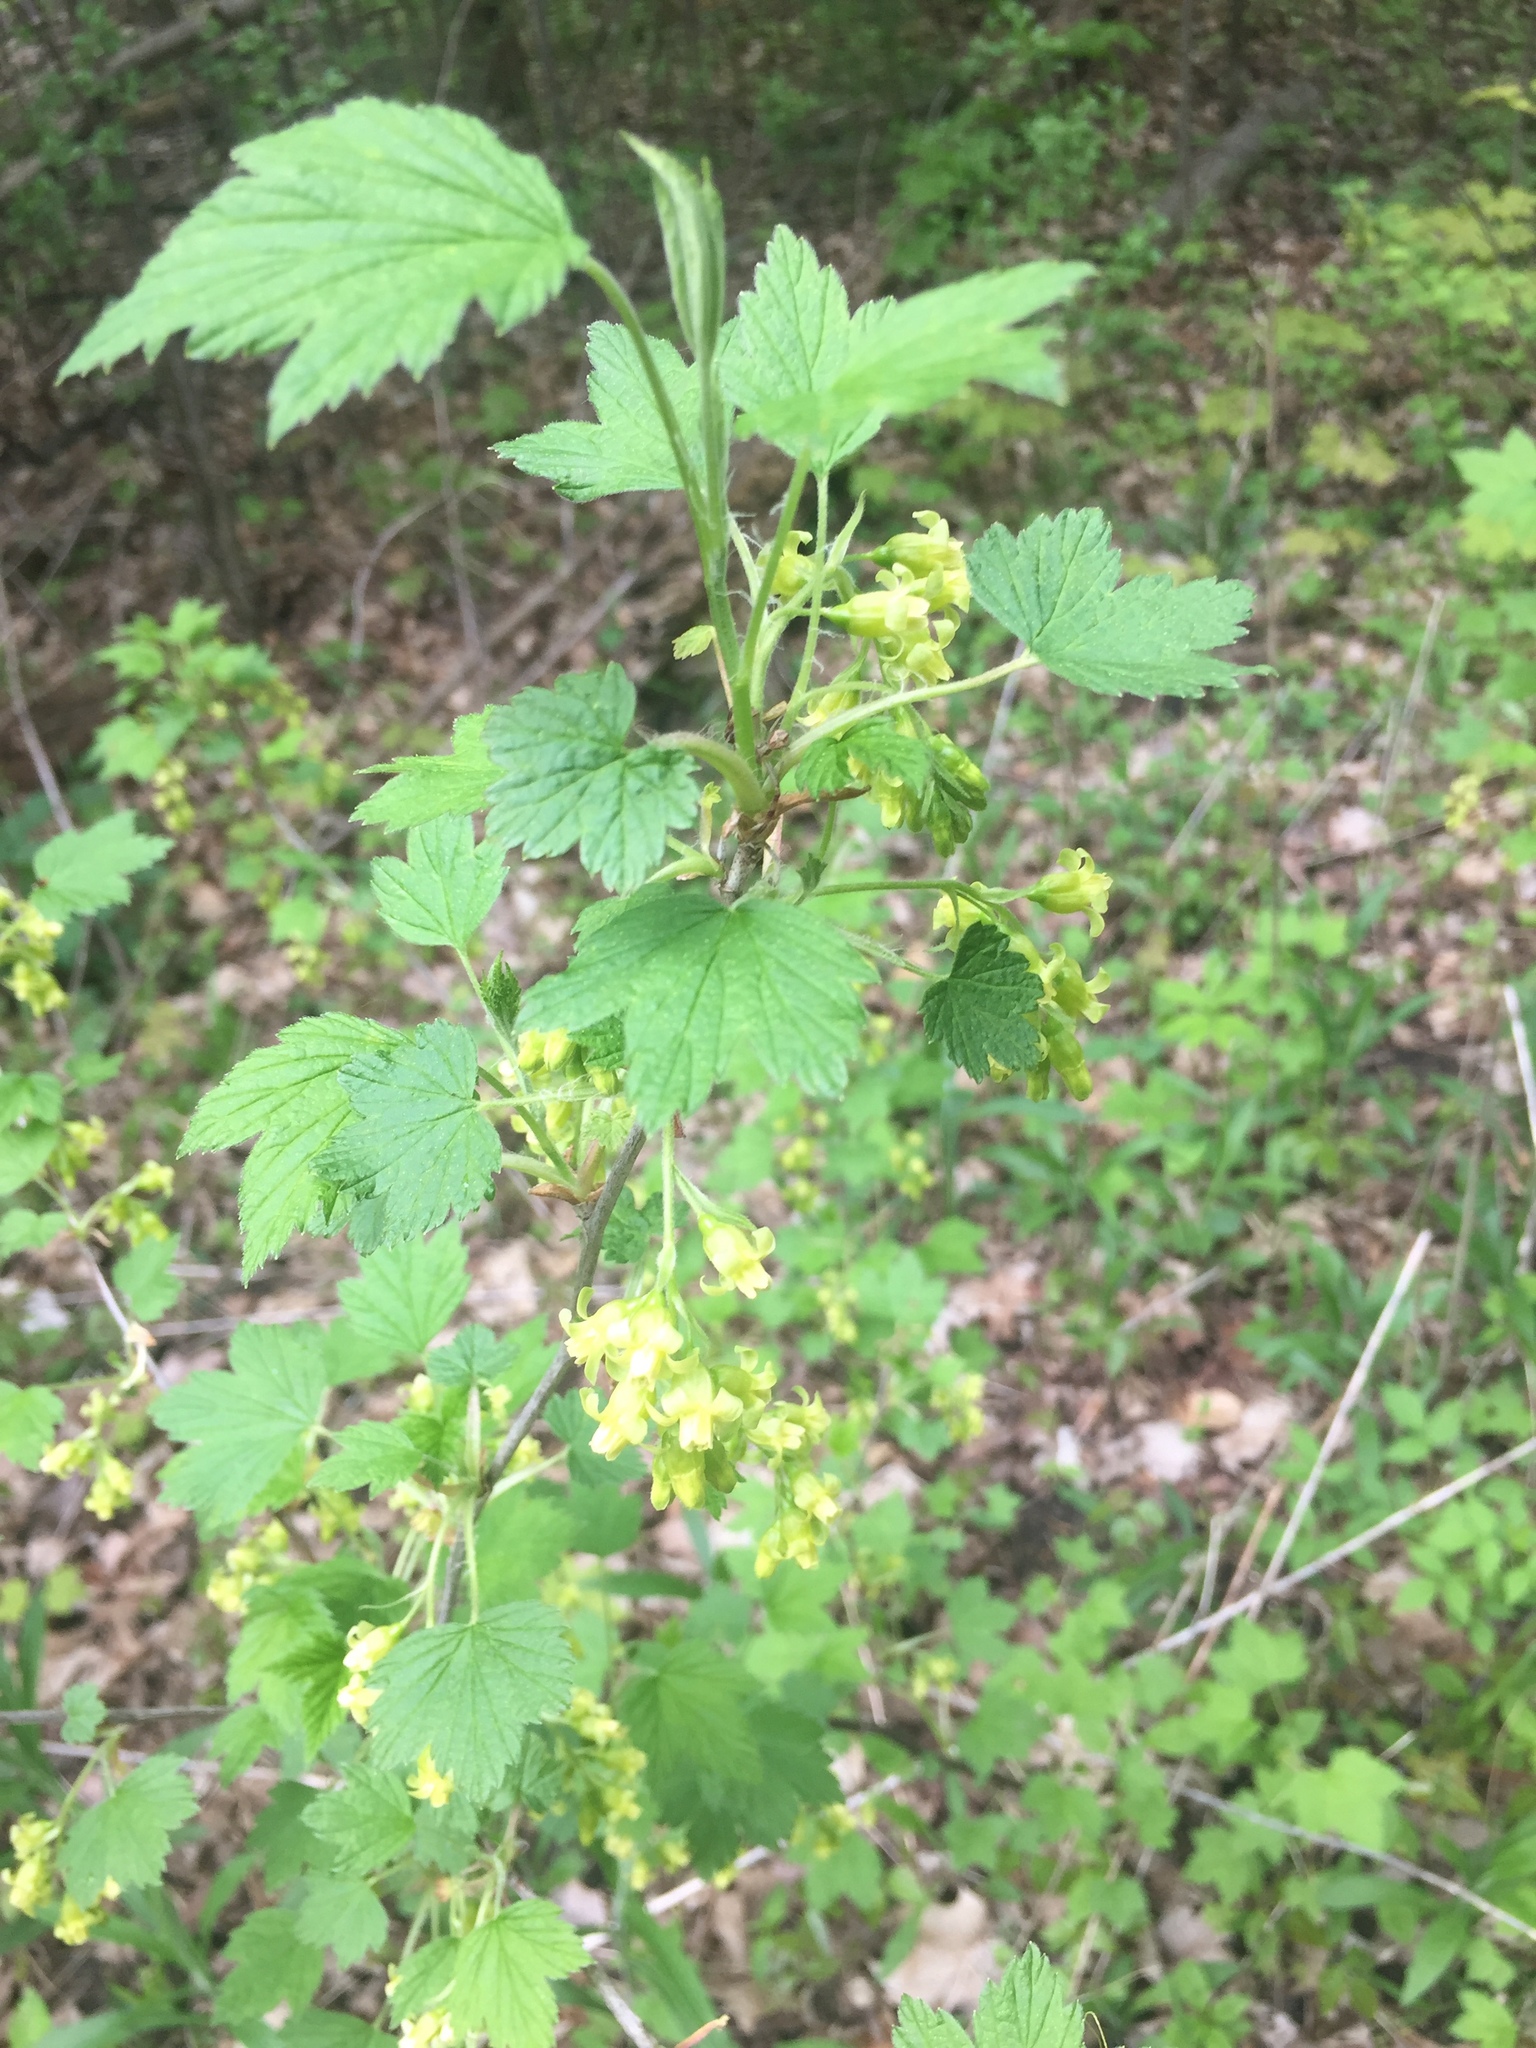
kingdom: Plantae
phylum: Tracheophyta
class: Magnoliopsida
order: Saxifragales
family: Grossulariaceae
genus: Ribes
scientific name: Ribes americanum
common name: American black currant
